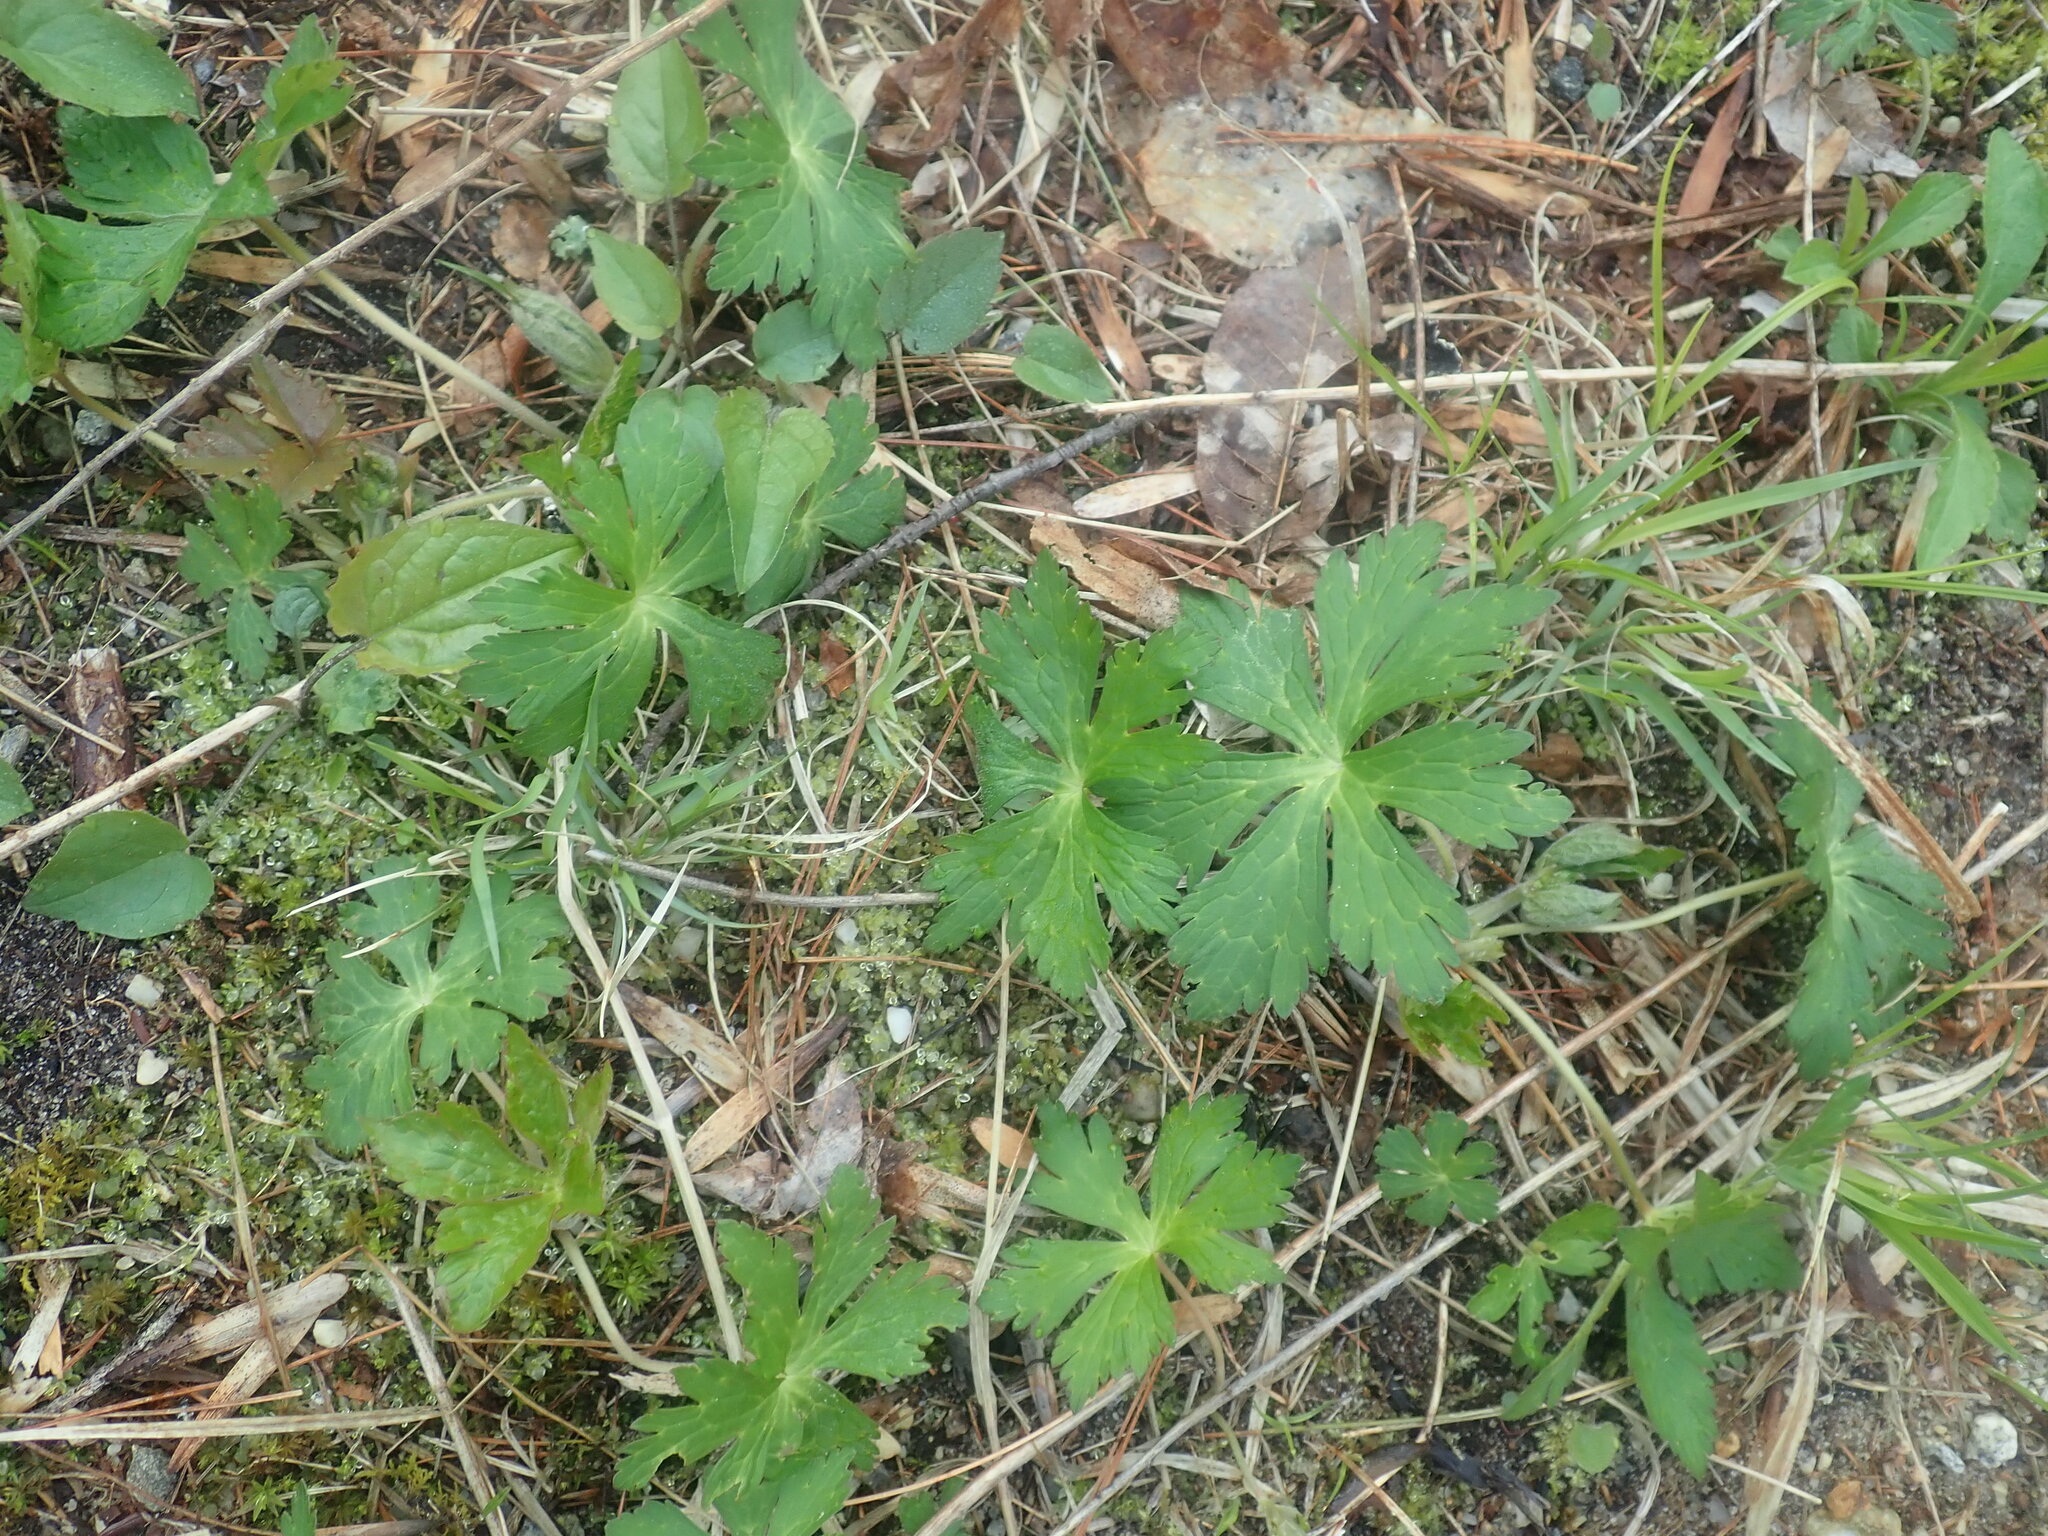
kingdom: Plantae
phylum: Tracheophyta
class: Magnoliopsida
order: Geraniales
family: Geraniaceae
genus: Geranium
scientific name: Geranium maculatum
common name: Spotted geranium
